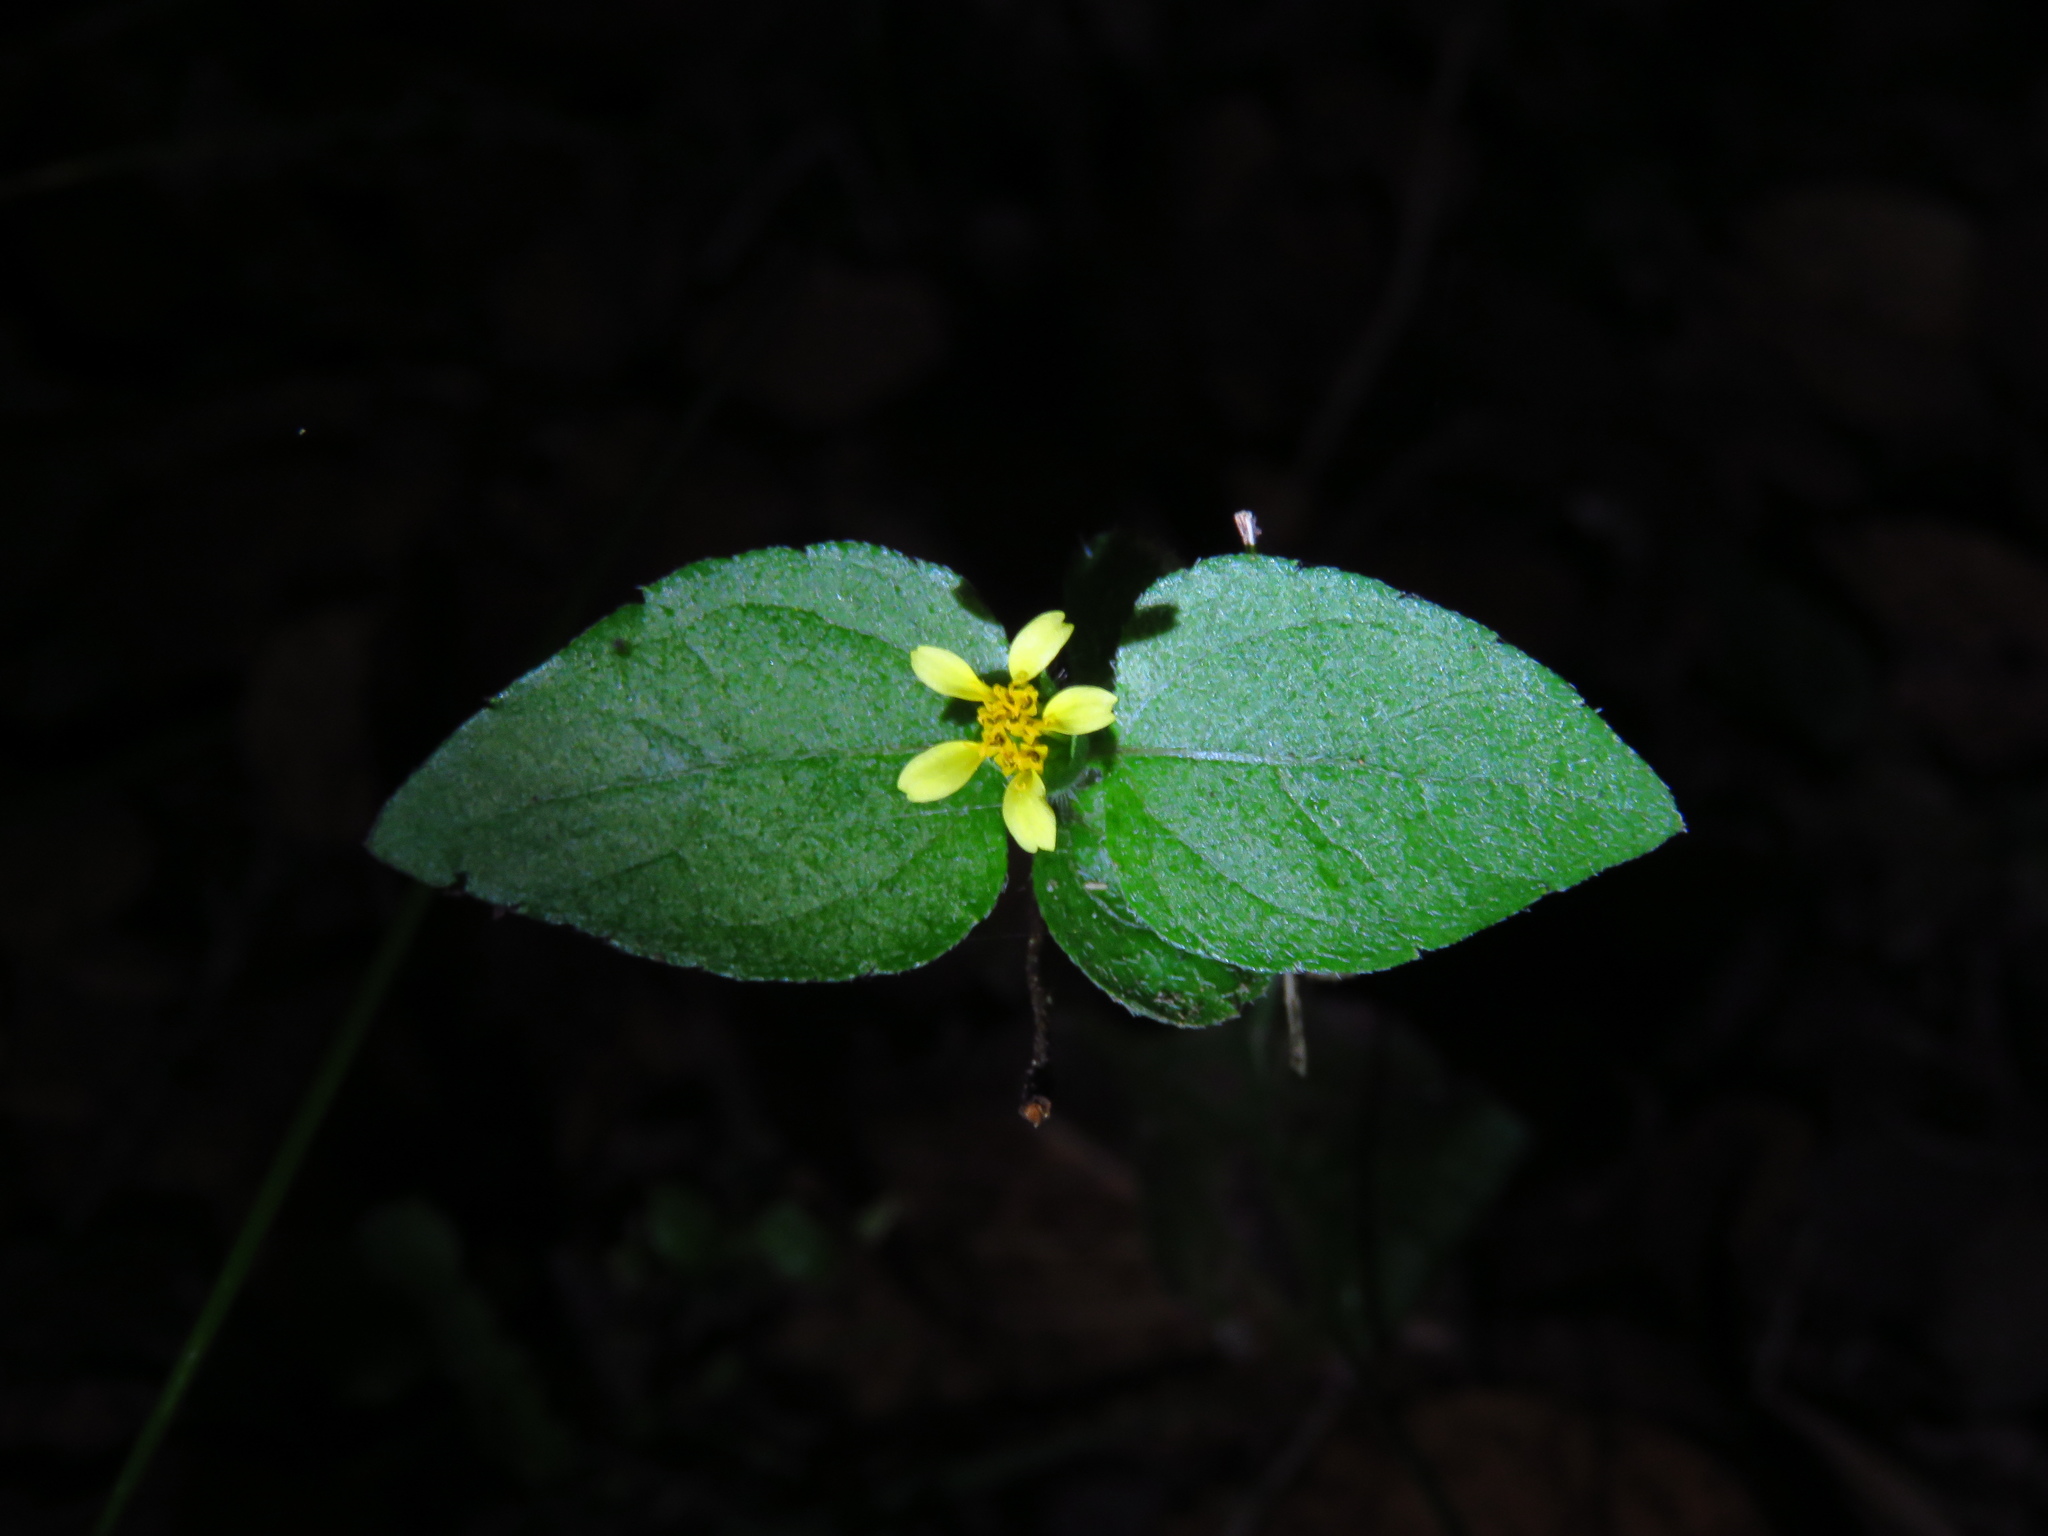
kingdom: Plantae
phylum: Tracheophyta
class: Magnoliopsida
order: Asterales
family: Asteraceae
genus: Calyptocarpus
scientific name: Calyptocarpus vialis
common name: Straggler daisy
